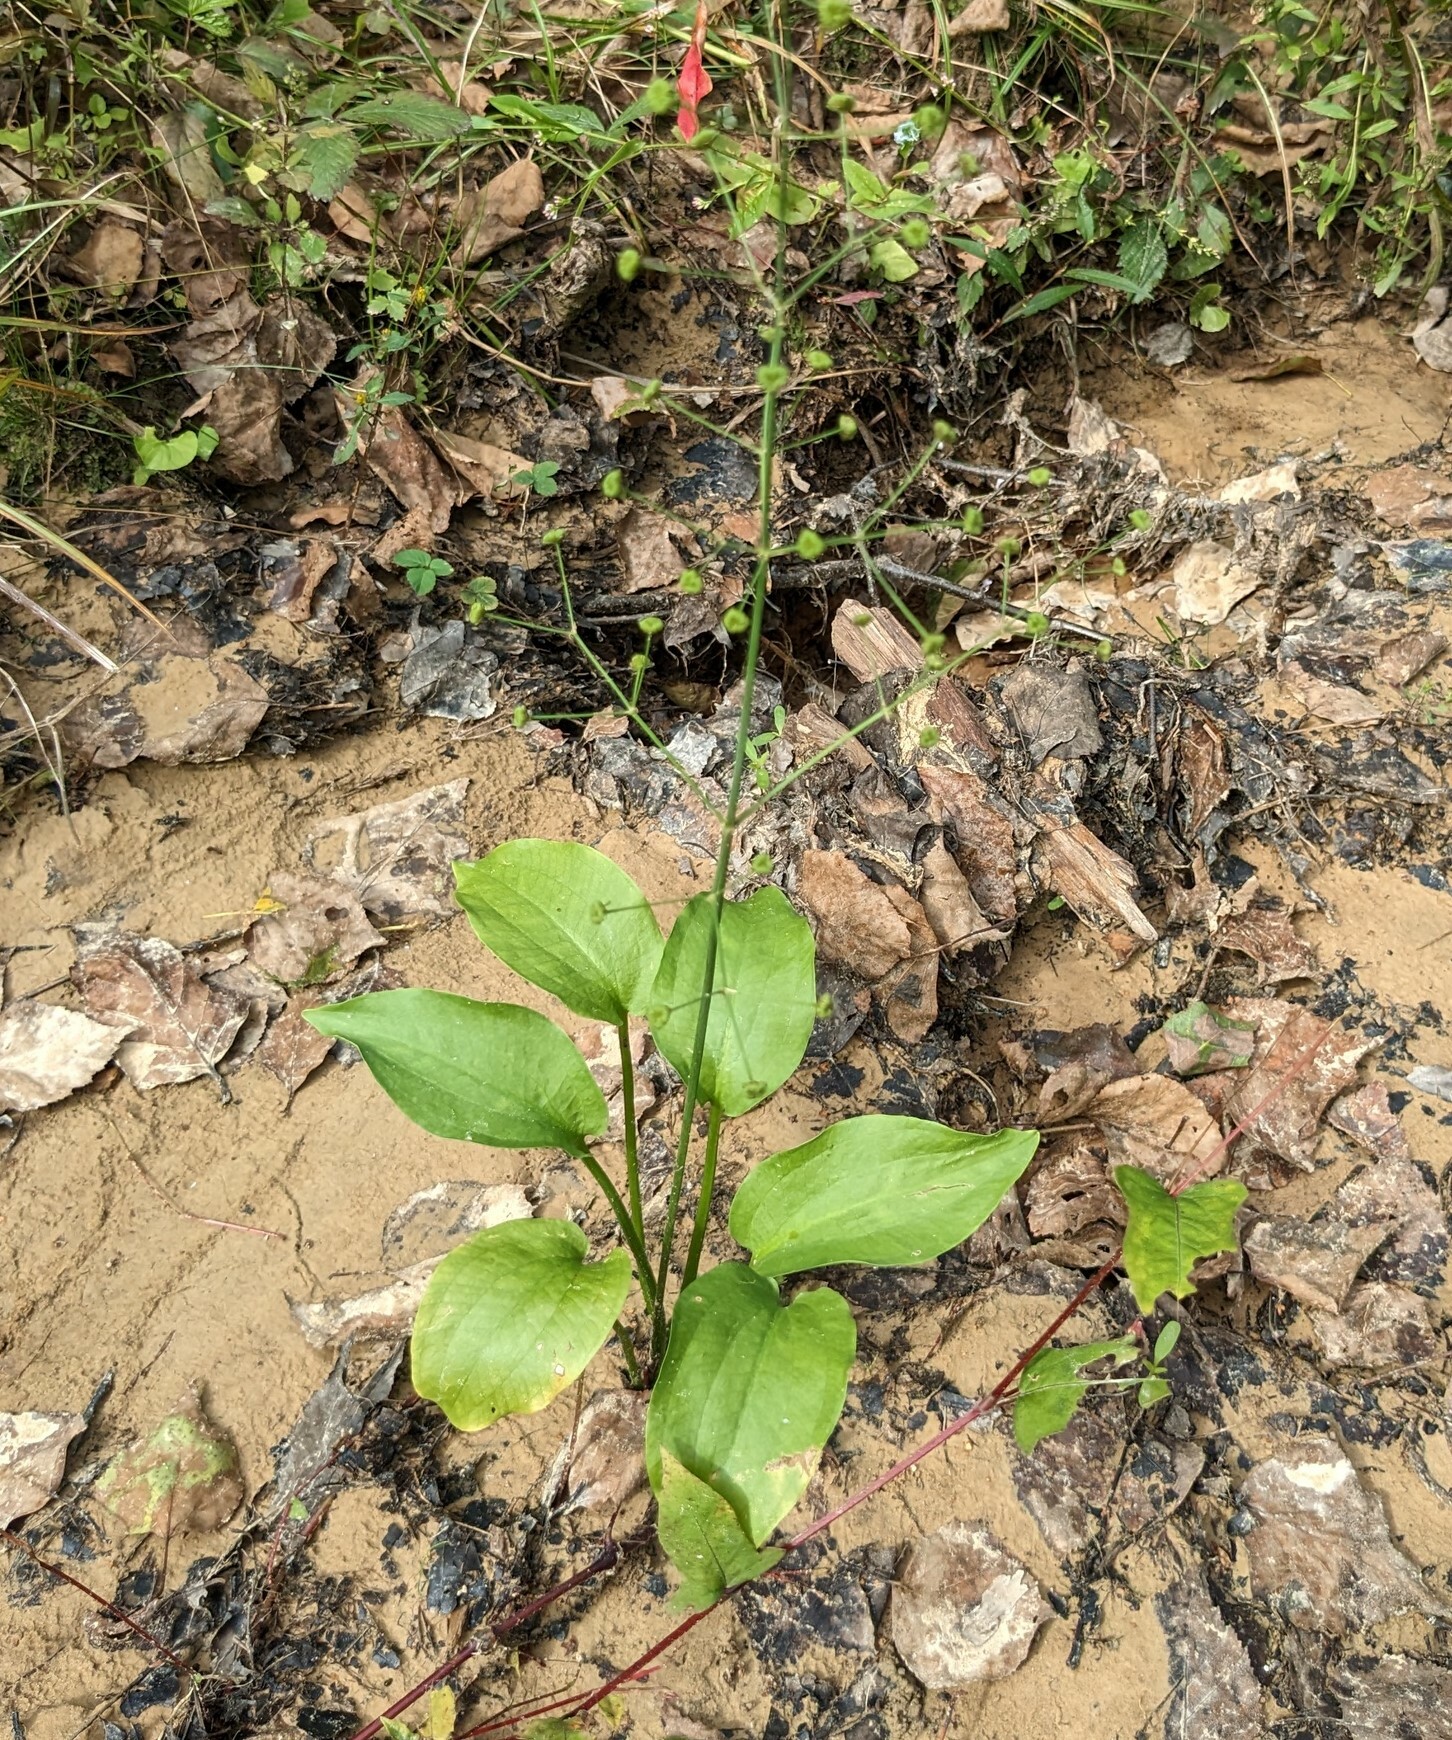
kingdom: Plantae
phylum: Tracheophyta
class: Liliopsida
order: Alismatales
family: Alismataceae
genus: Alisma
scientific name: Alisma plantago-aquatica
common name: Water-plantain
